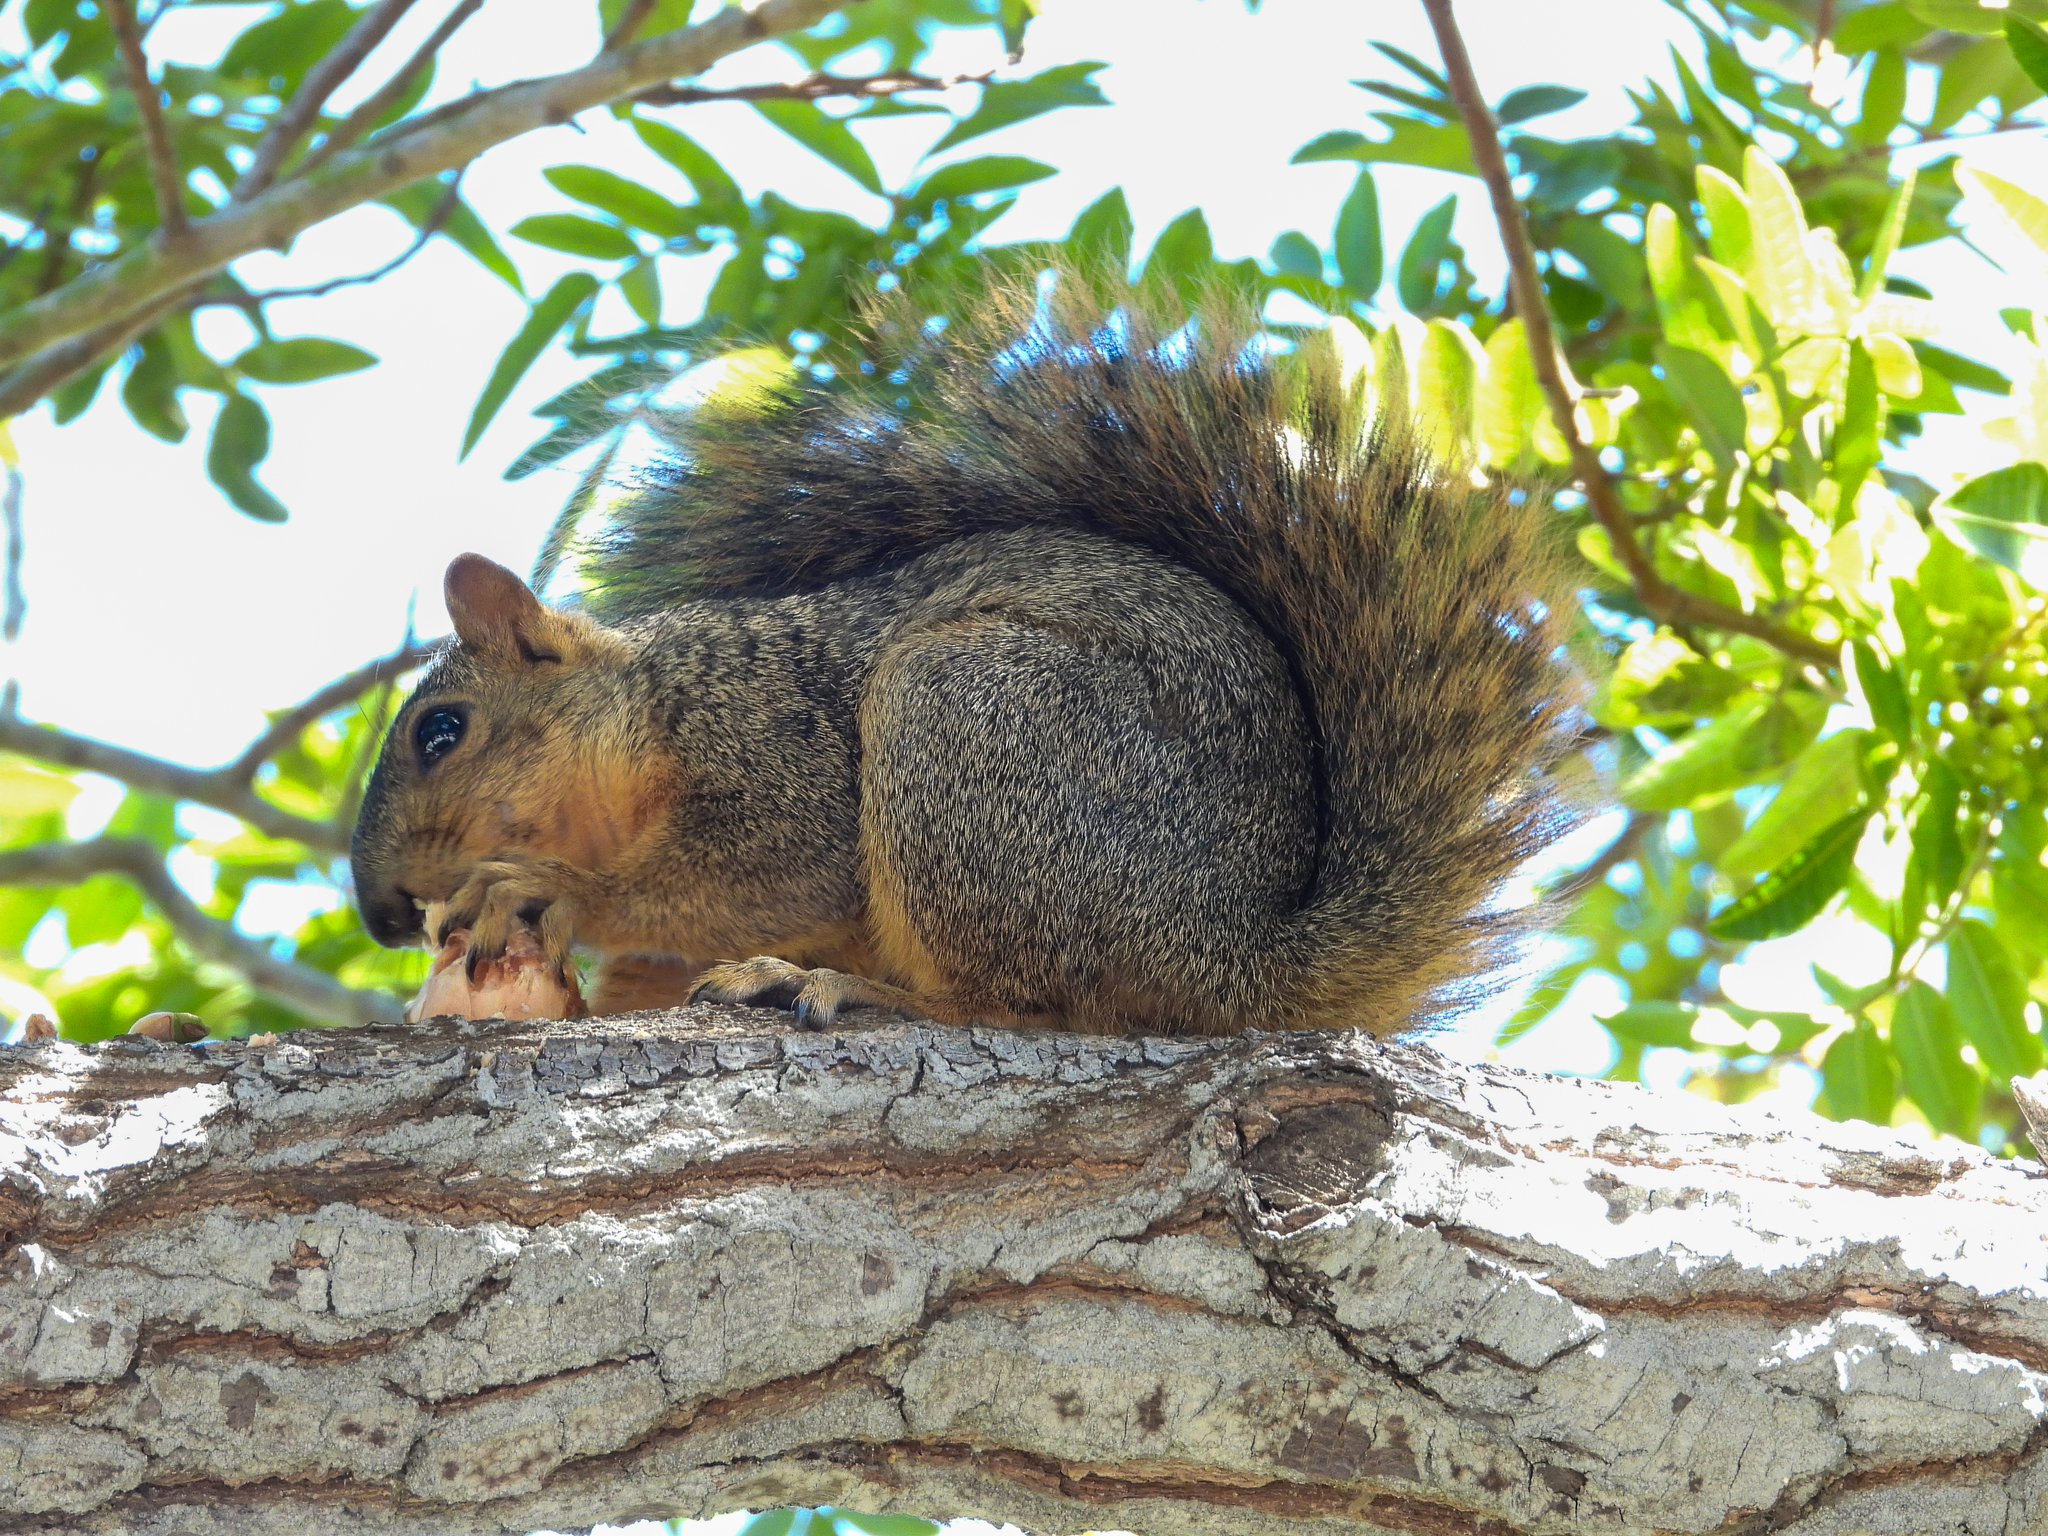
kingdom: Animalia
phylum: Chordata
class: Mammalia
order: Rodentia
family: Sciuridae
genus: Sciurus
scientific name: Sciurus niger
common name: Fox squirrel
